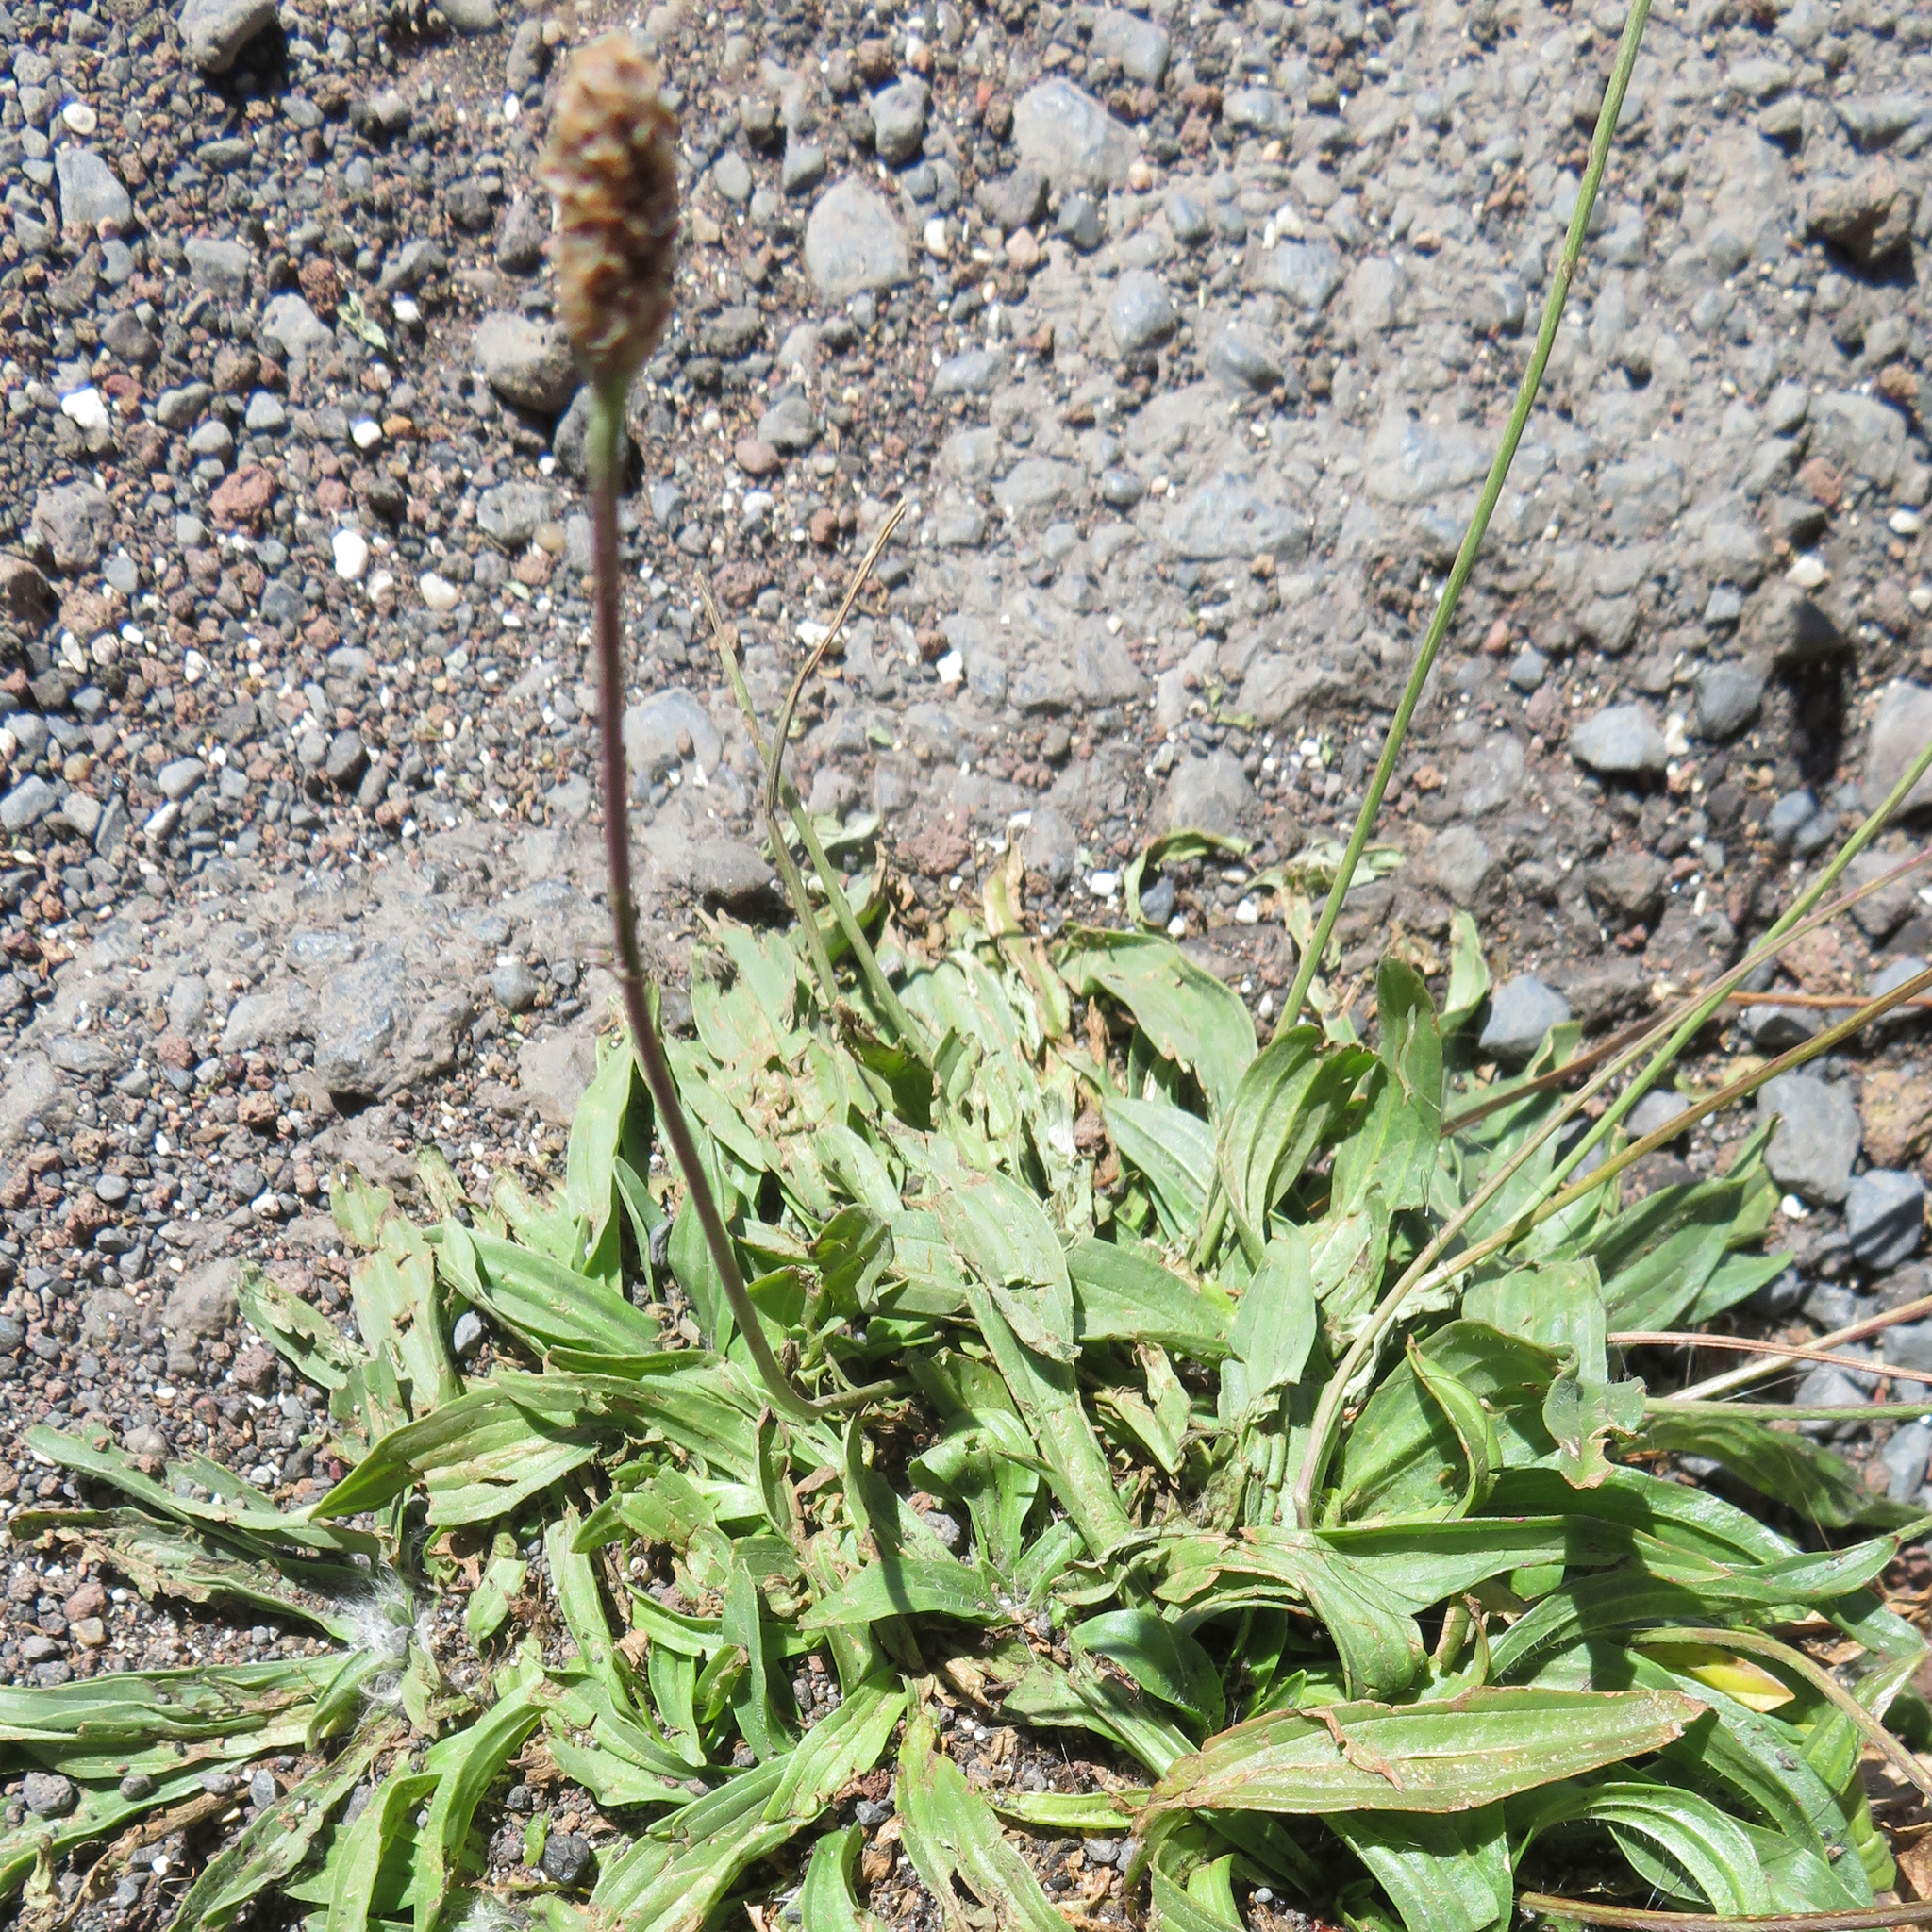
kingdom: Plantae
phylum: Tracheophyta
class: Magnoliopsida
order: Lamiales
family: Plantaginaceae
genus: Plantago
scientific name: Plantago lanceolata
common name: Ribwort plantain
